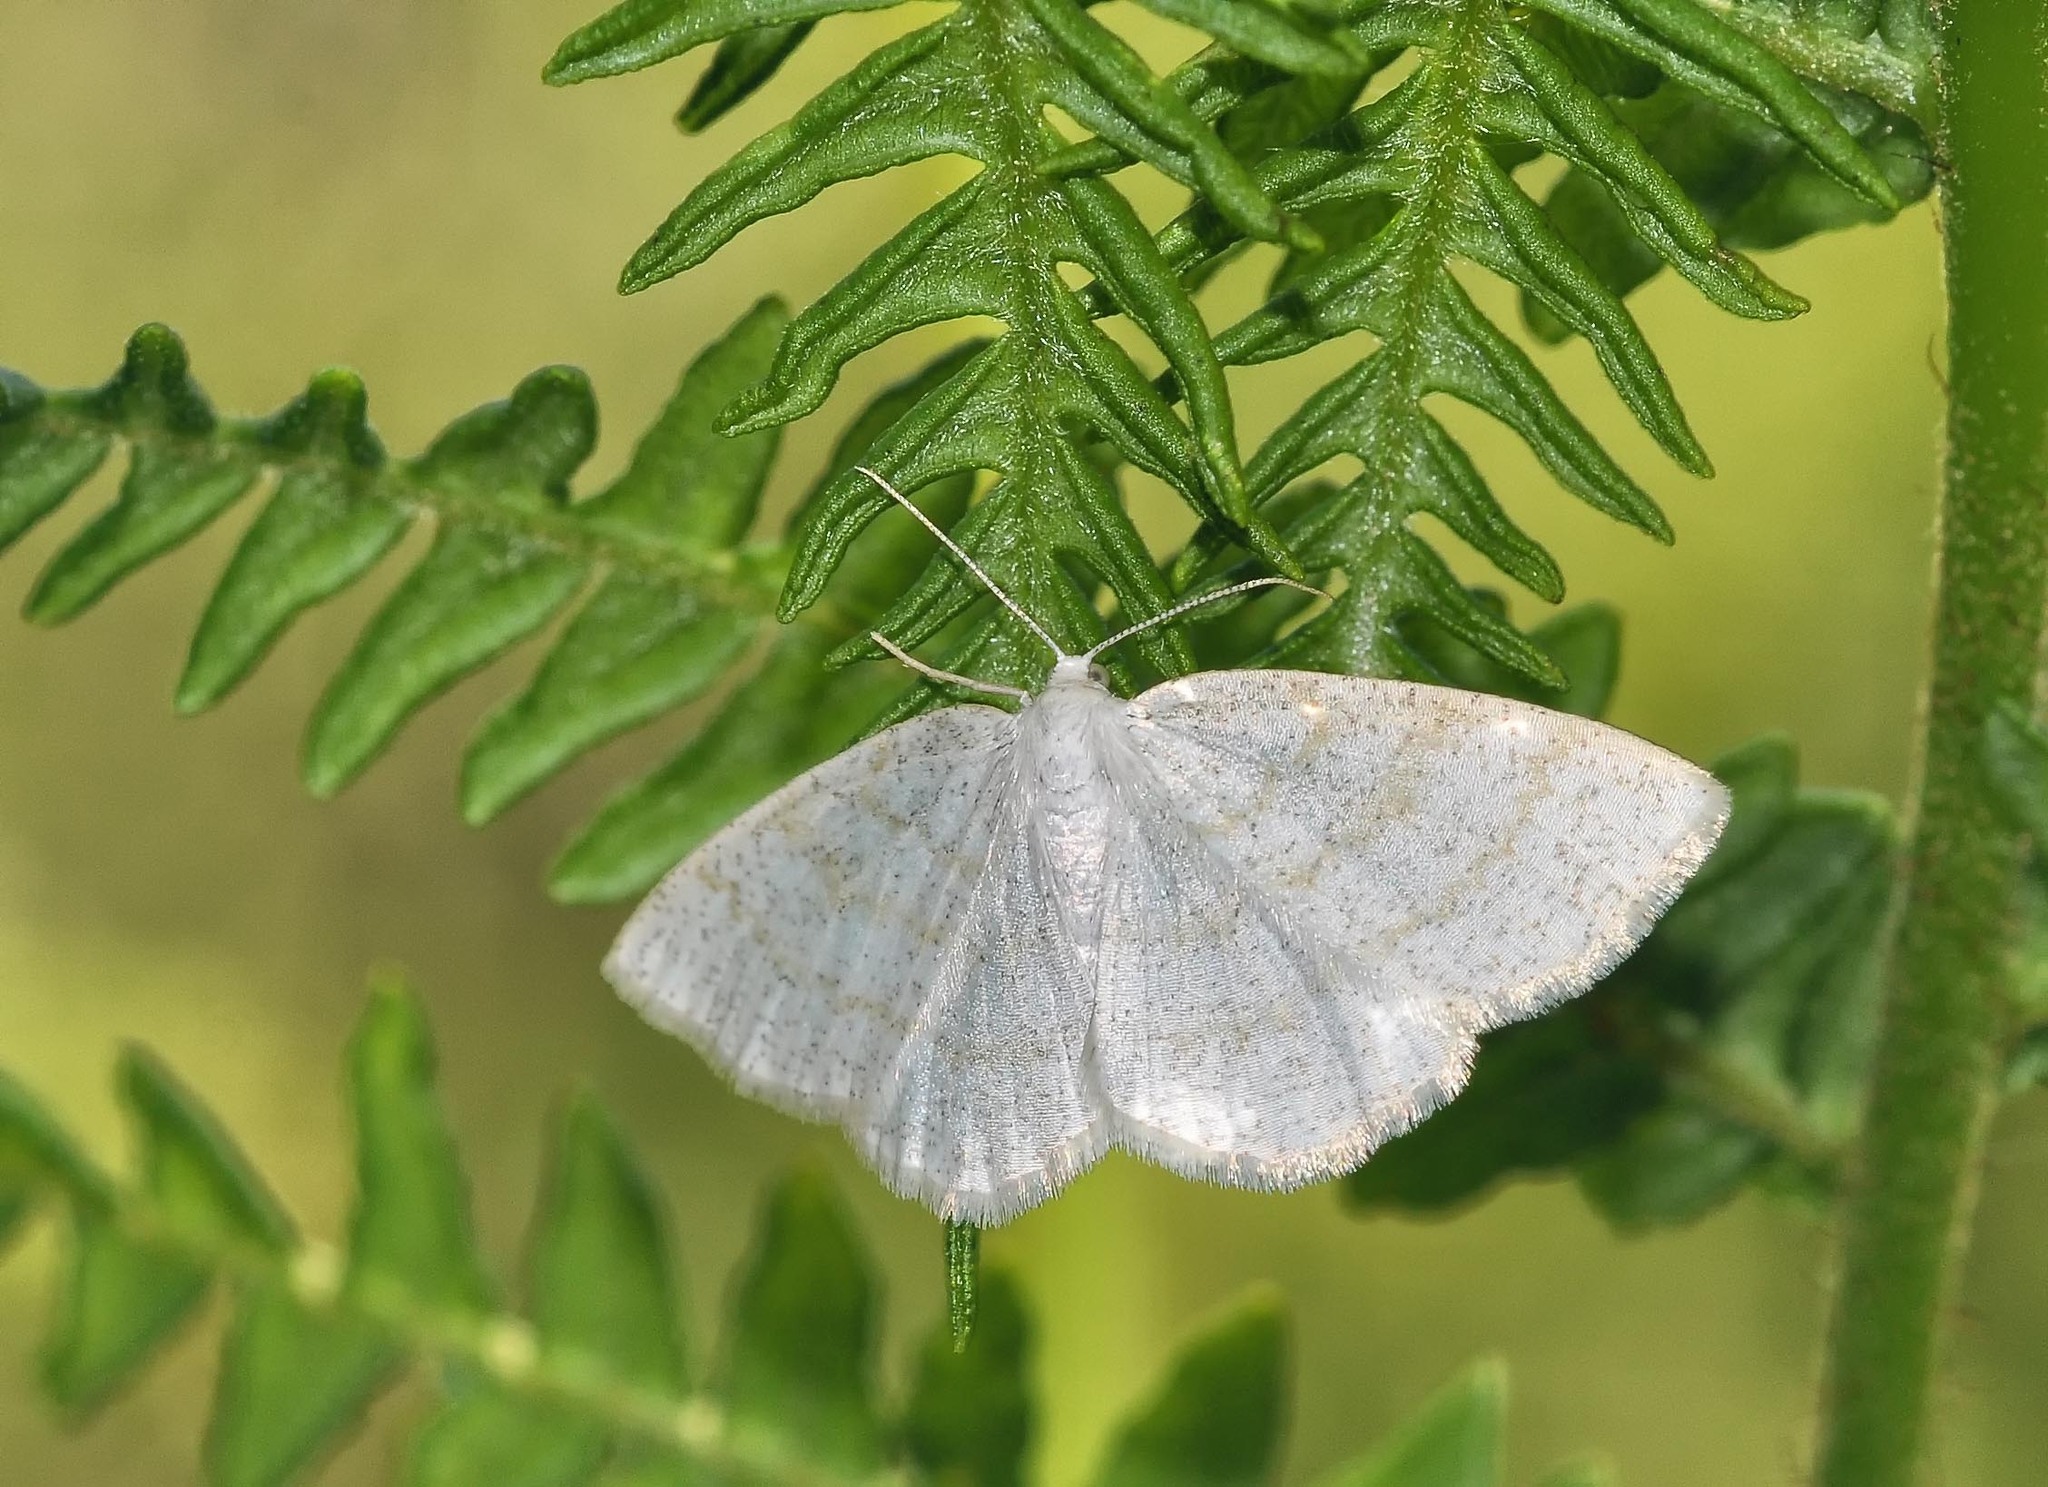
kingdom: Animalia
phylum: Arthropoda
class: Insecta
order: Lepidoptera
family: Geometridae
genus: Cabera
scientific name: Cabera exanthemata
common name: Common wave
